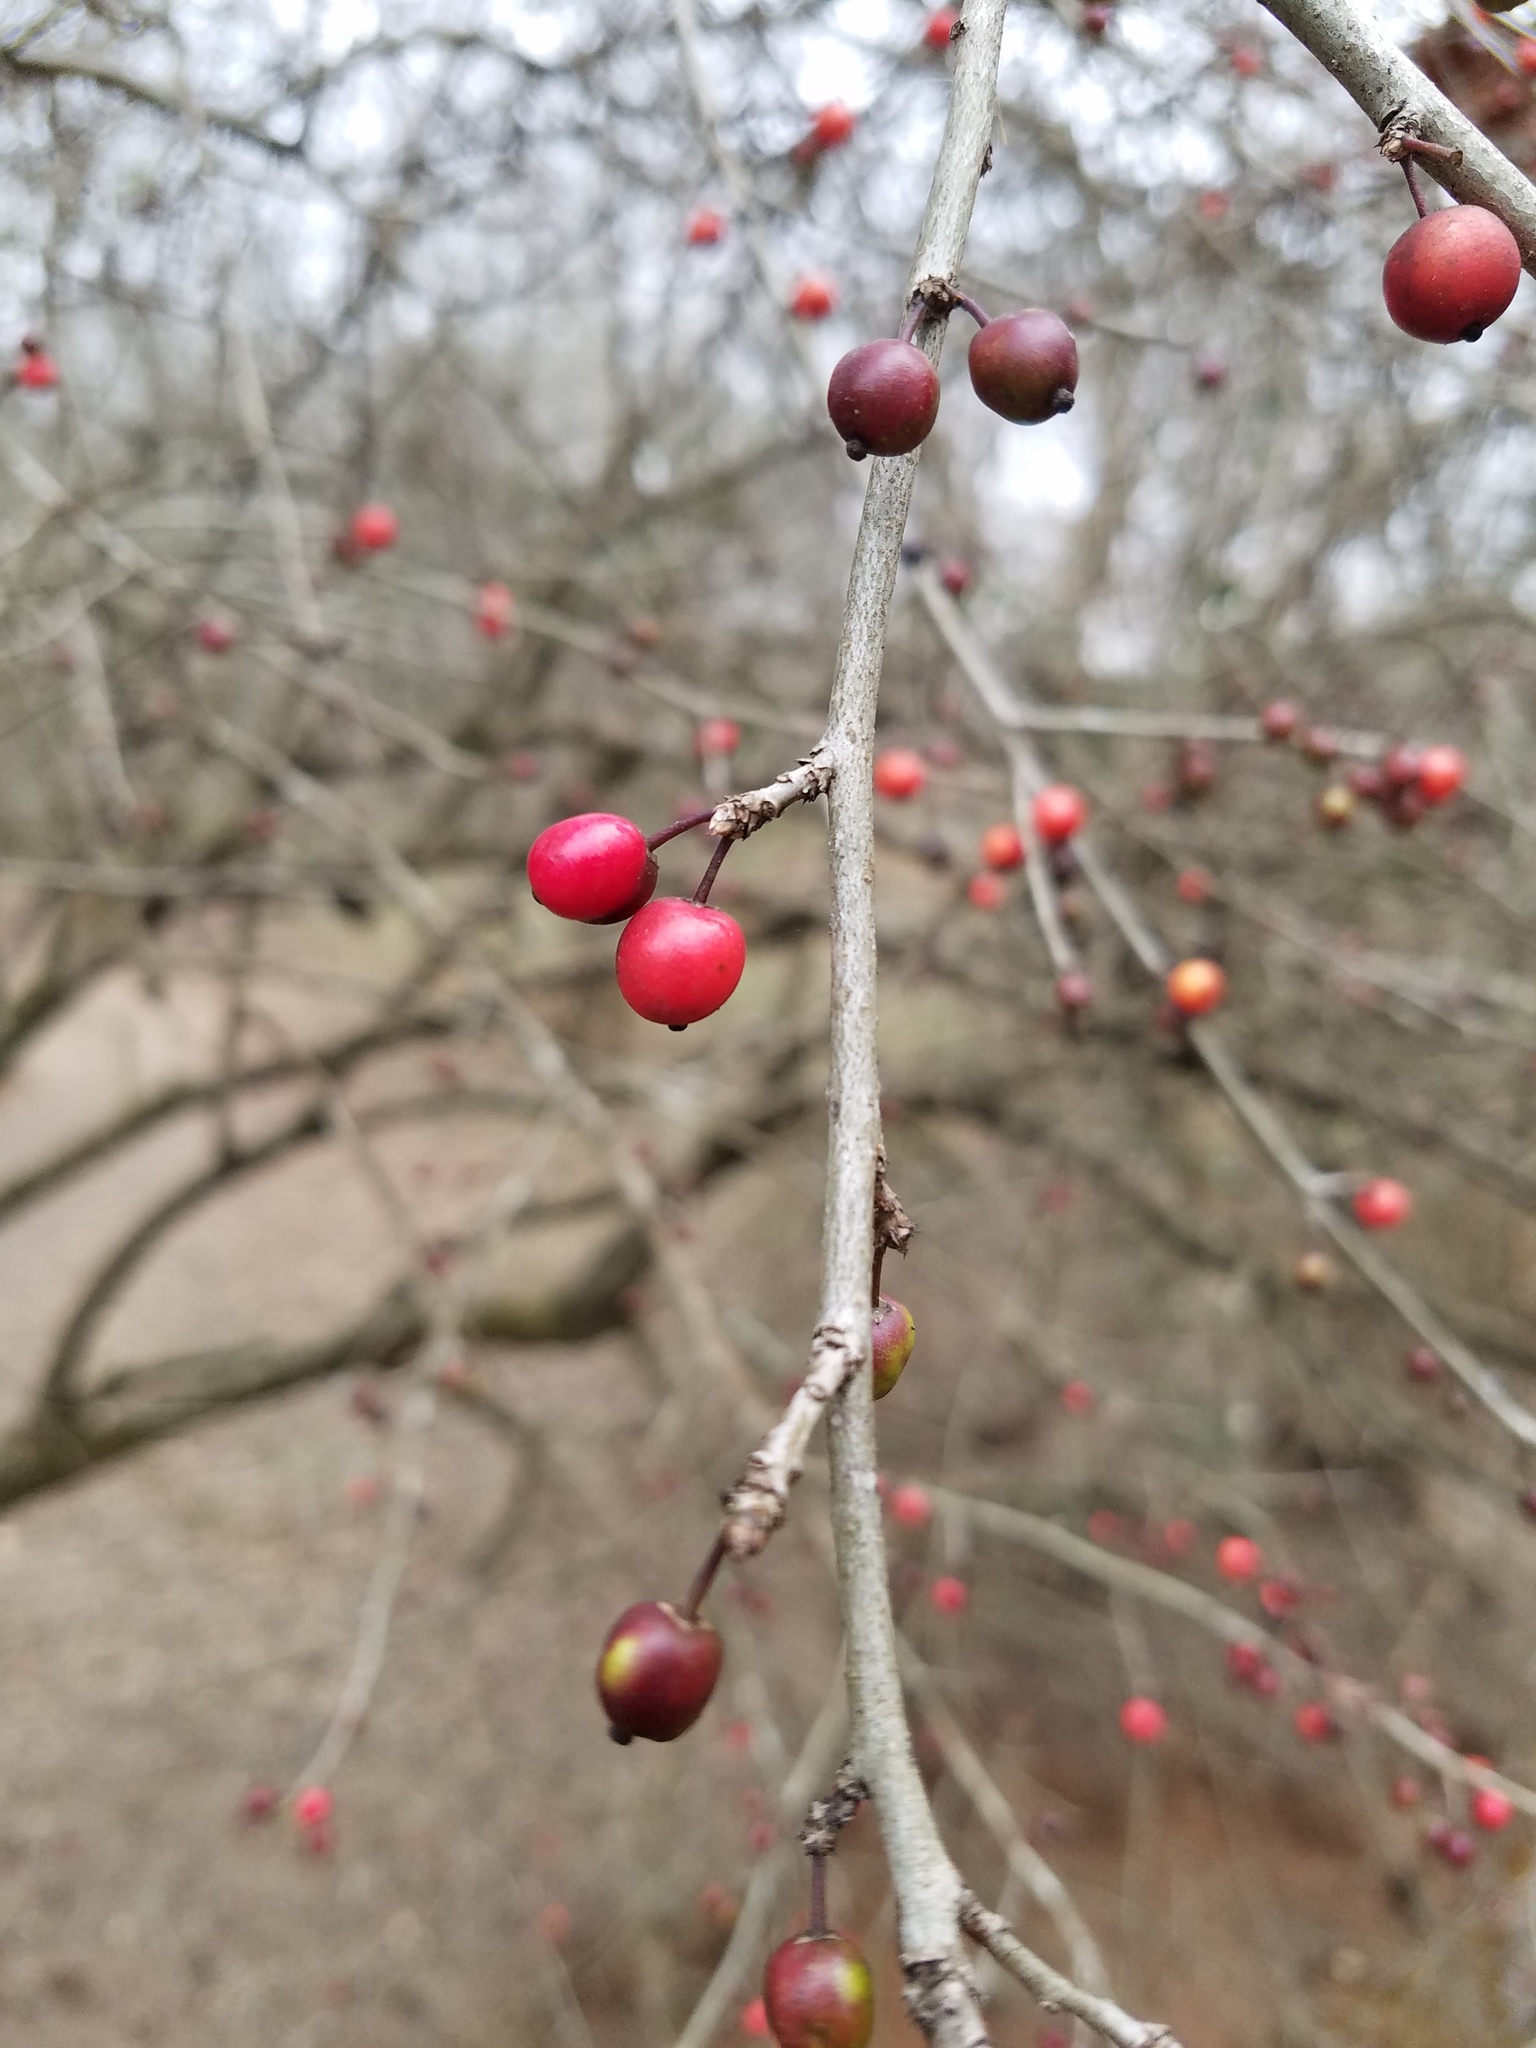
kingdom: Plantae
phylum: Tracheophyta
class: Magnoliopsida
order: Aquifoliales
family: Aquifoliaceae
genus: Ilex
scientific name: Ilex decidua
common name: Possum-haw
